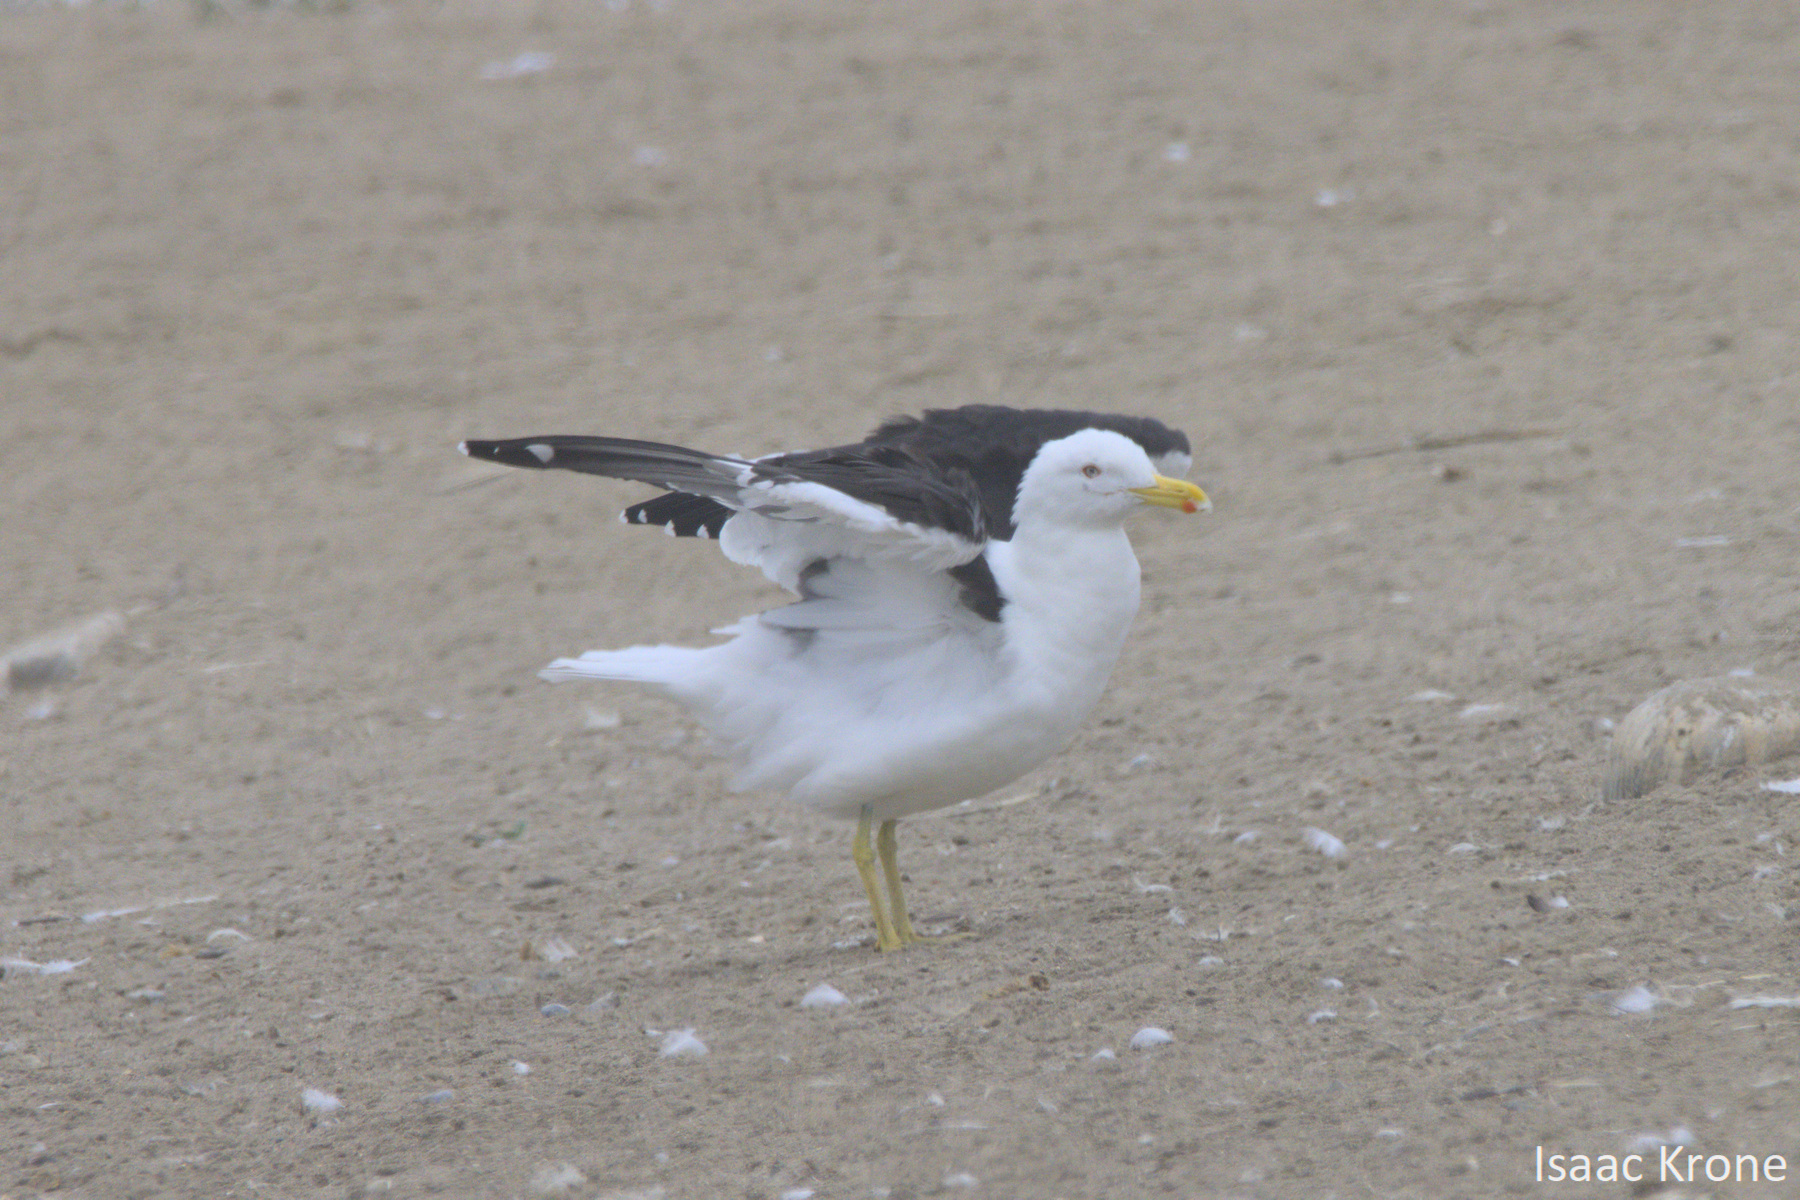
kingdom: Animalia
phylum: Chordata
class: Aves
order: Charadriiformes
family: Laridae
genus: Larus
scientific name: Larus dominicanus
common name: Kelp gull
